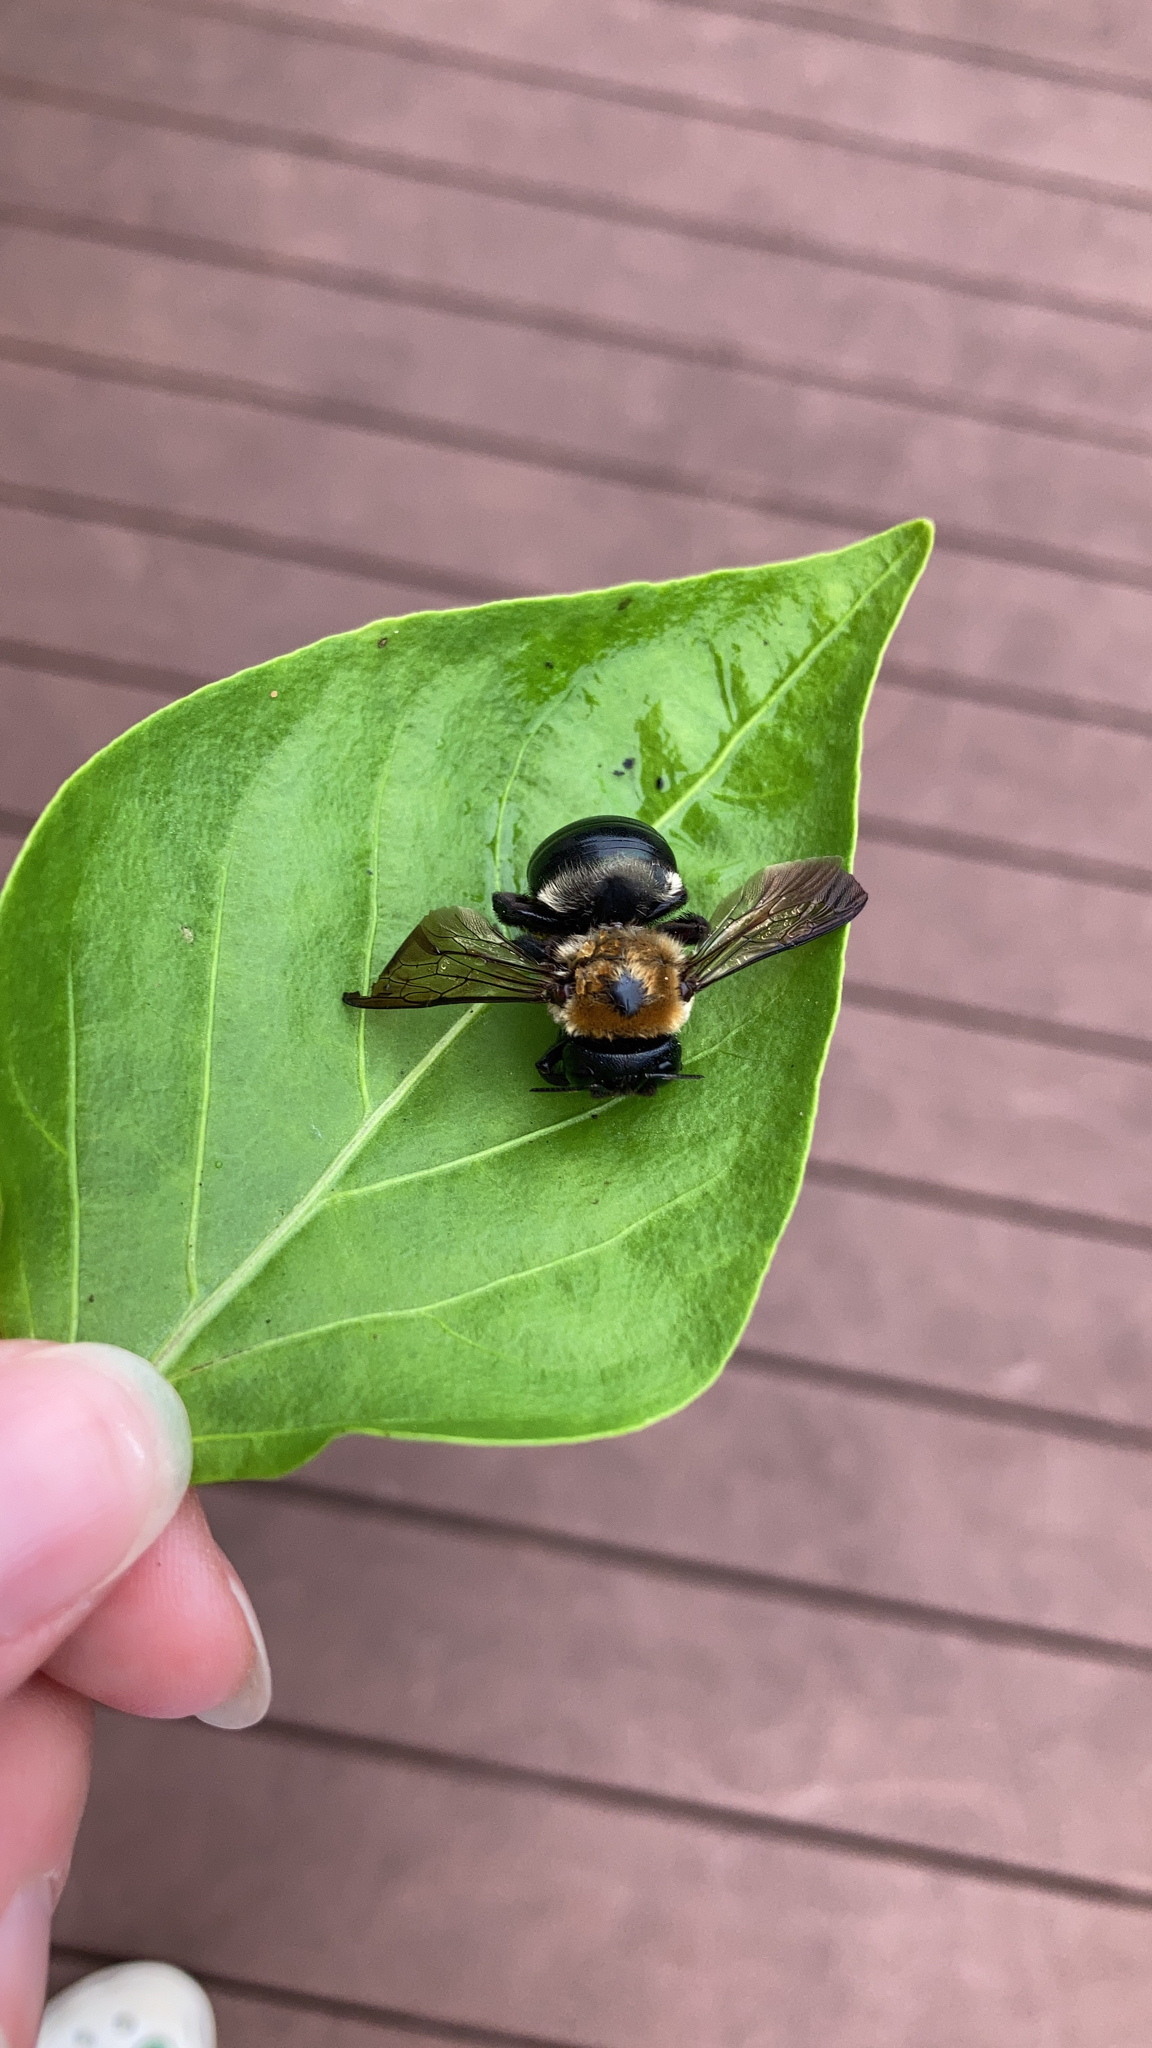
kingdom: Animalia
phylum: Arthropoda
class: Insecta
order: Hymenoptera
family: Apidae
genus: Xylocopa
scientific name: Xylocopa virginica
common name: Carpenter bee
